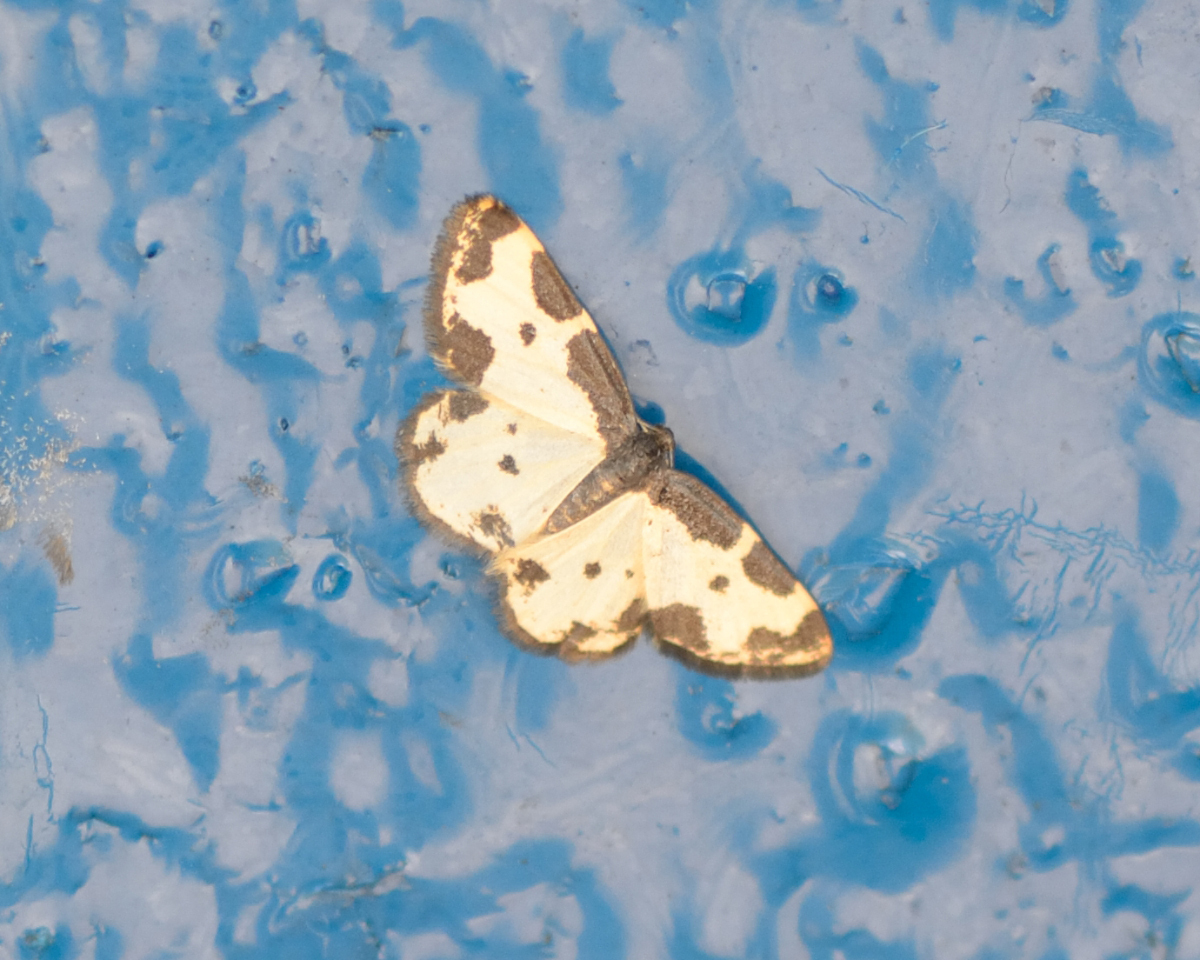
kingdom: Animalia
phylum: Arthropoda
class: Insecta
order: Lepidoptera
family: Geometridae
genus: Lomaspilis
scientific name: Lomaspilis marginata
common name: Clouded border
